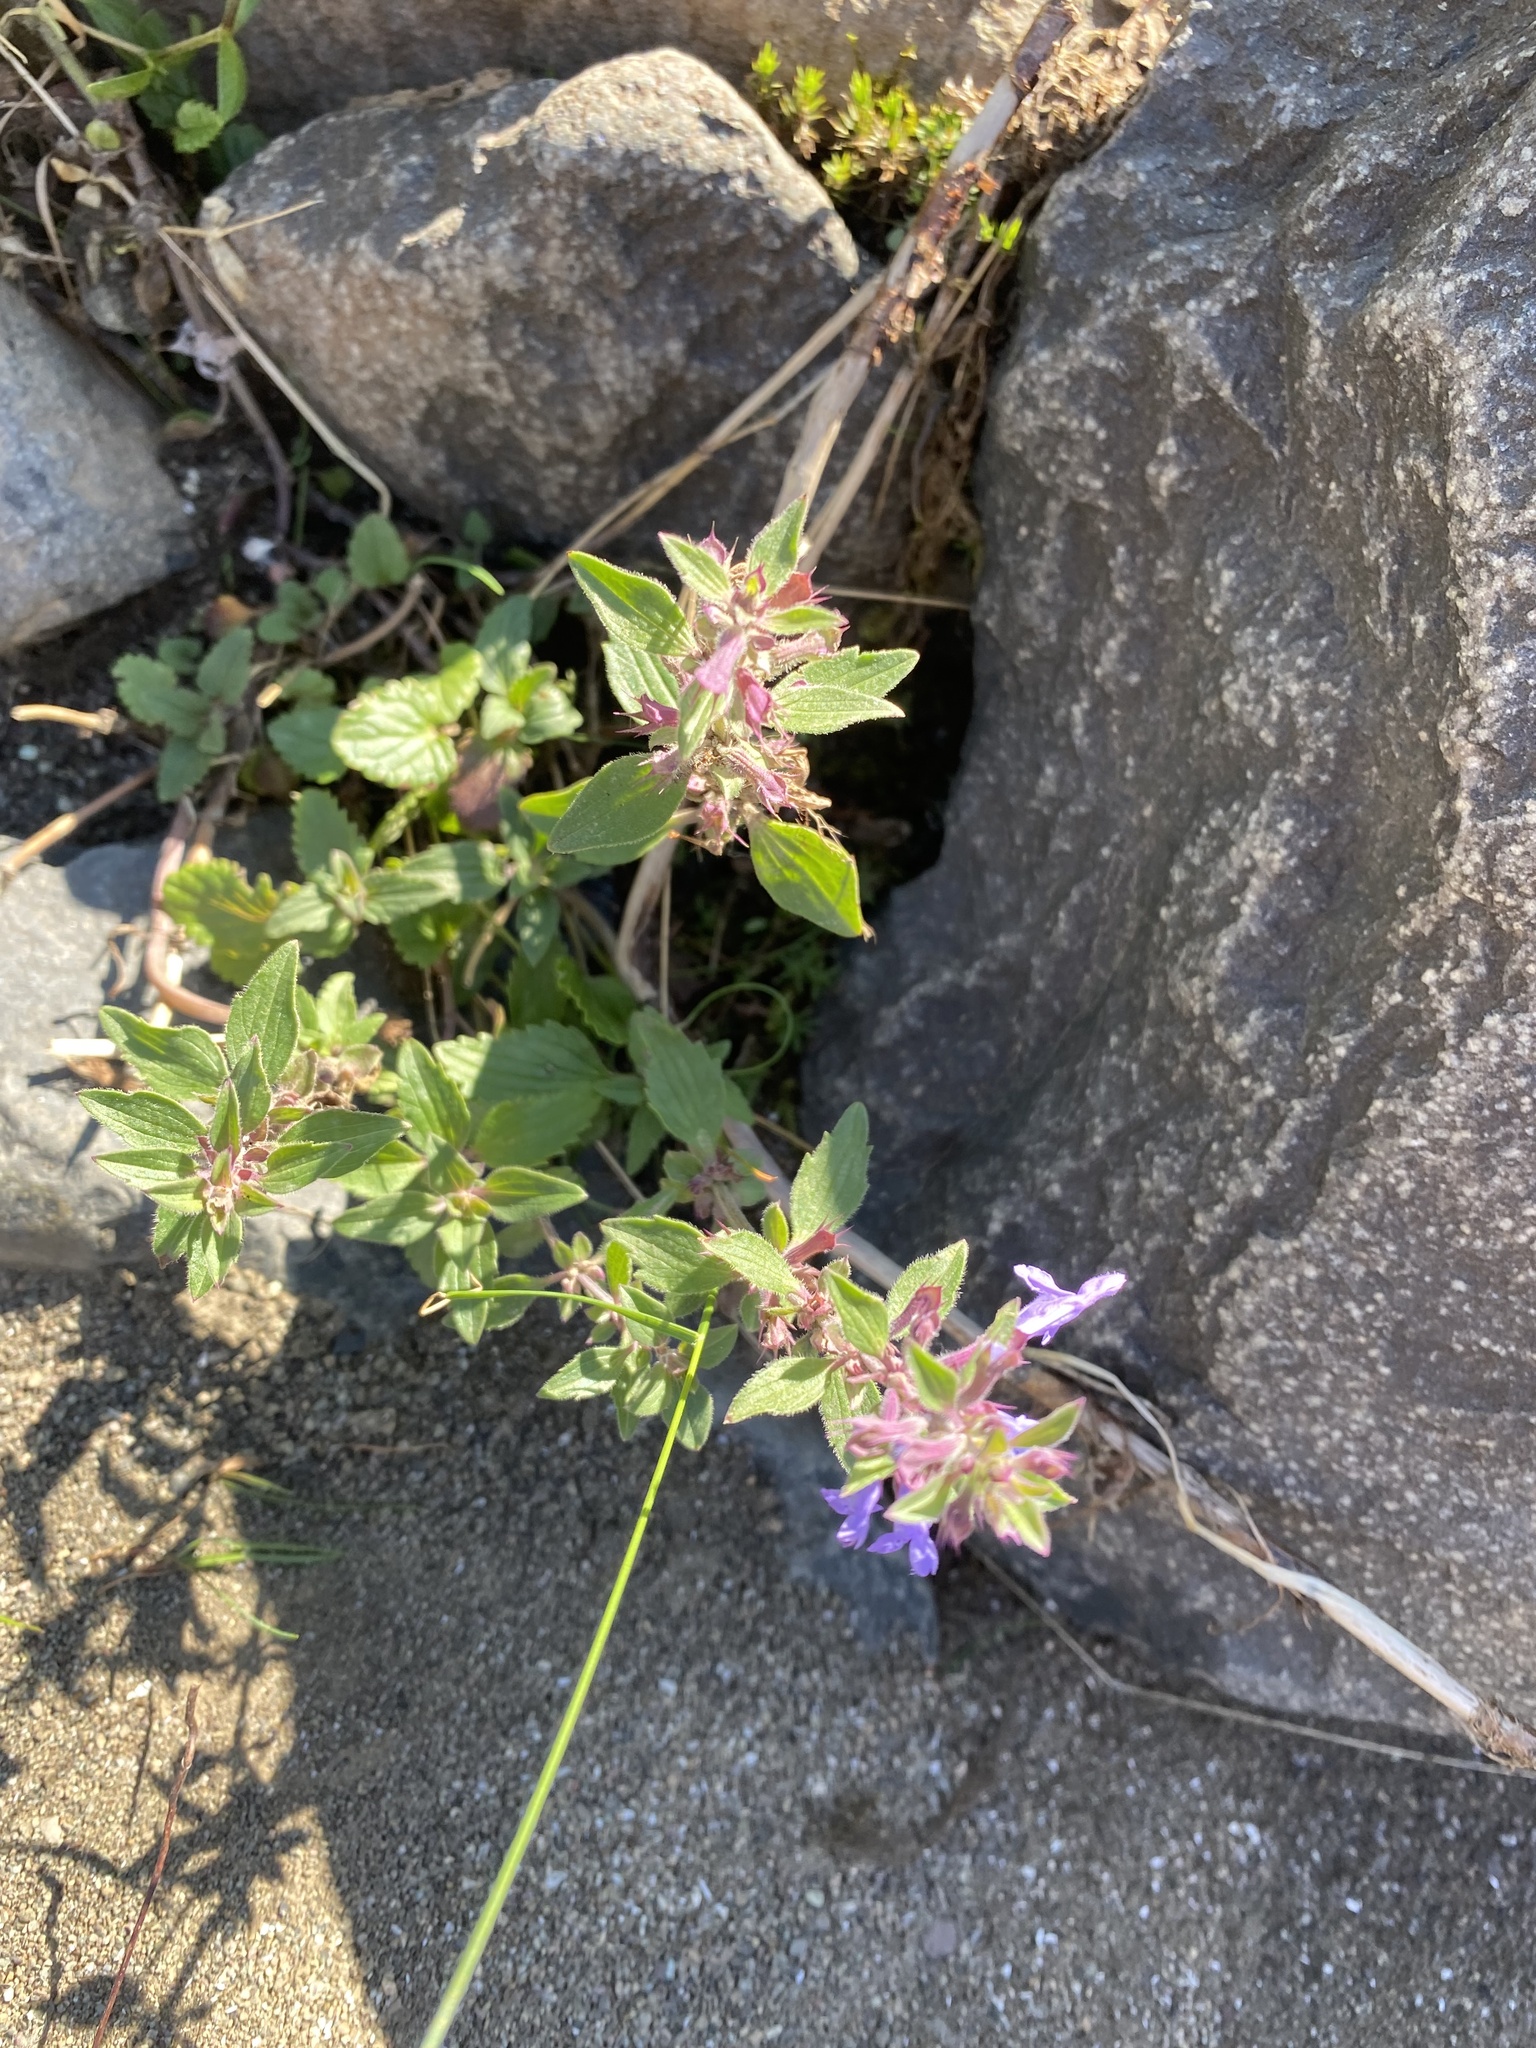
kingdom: Plantae
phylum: Tracheophyta
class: Magnoliopsida
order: Lamiales
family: Lamiaceae
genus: Dracocephalum
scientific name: Dracocephalum nutans
